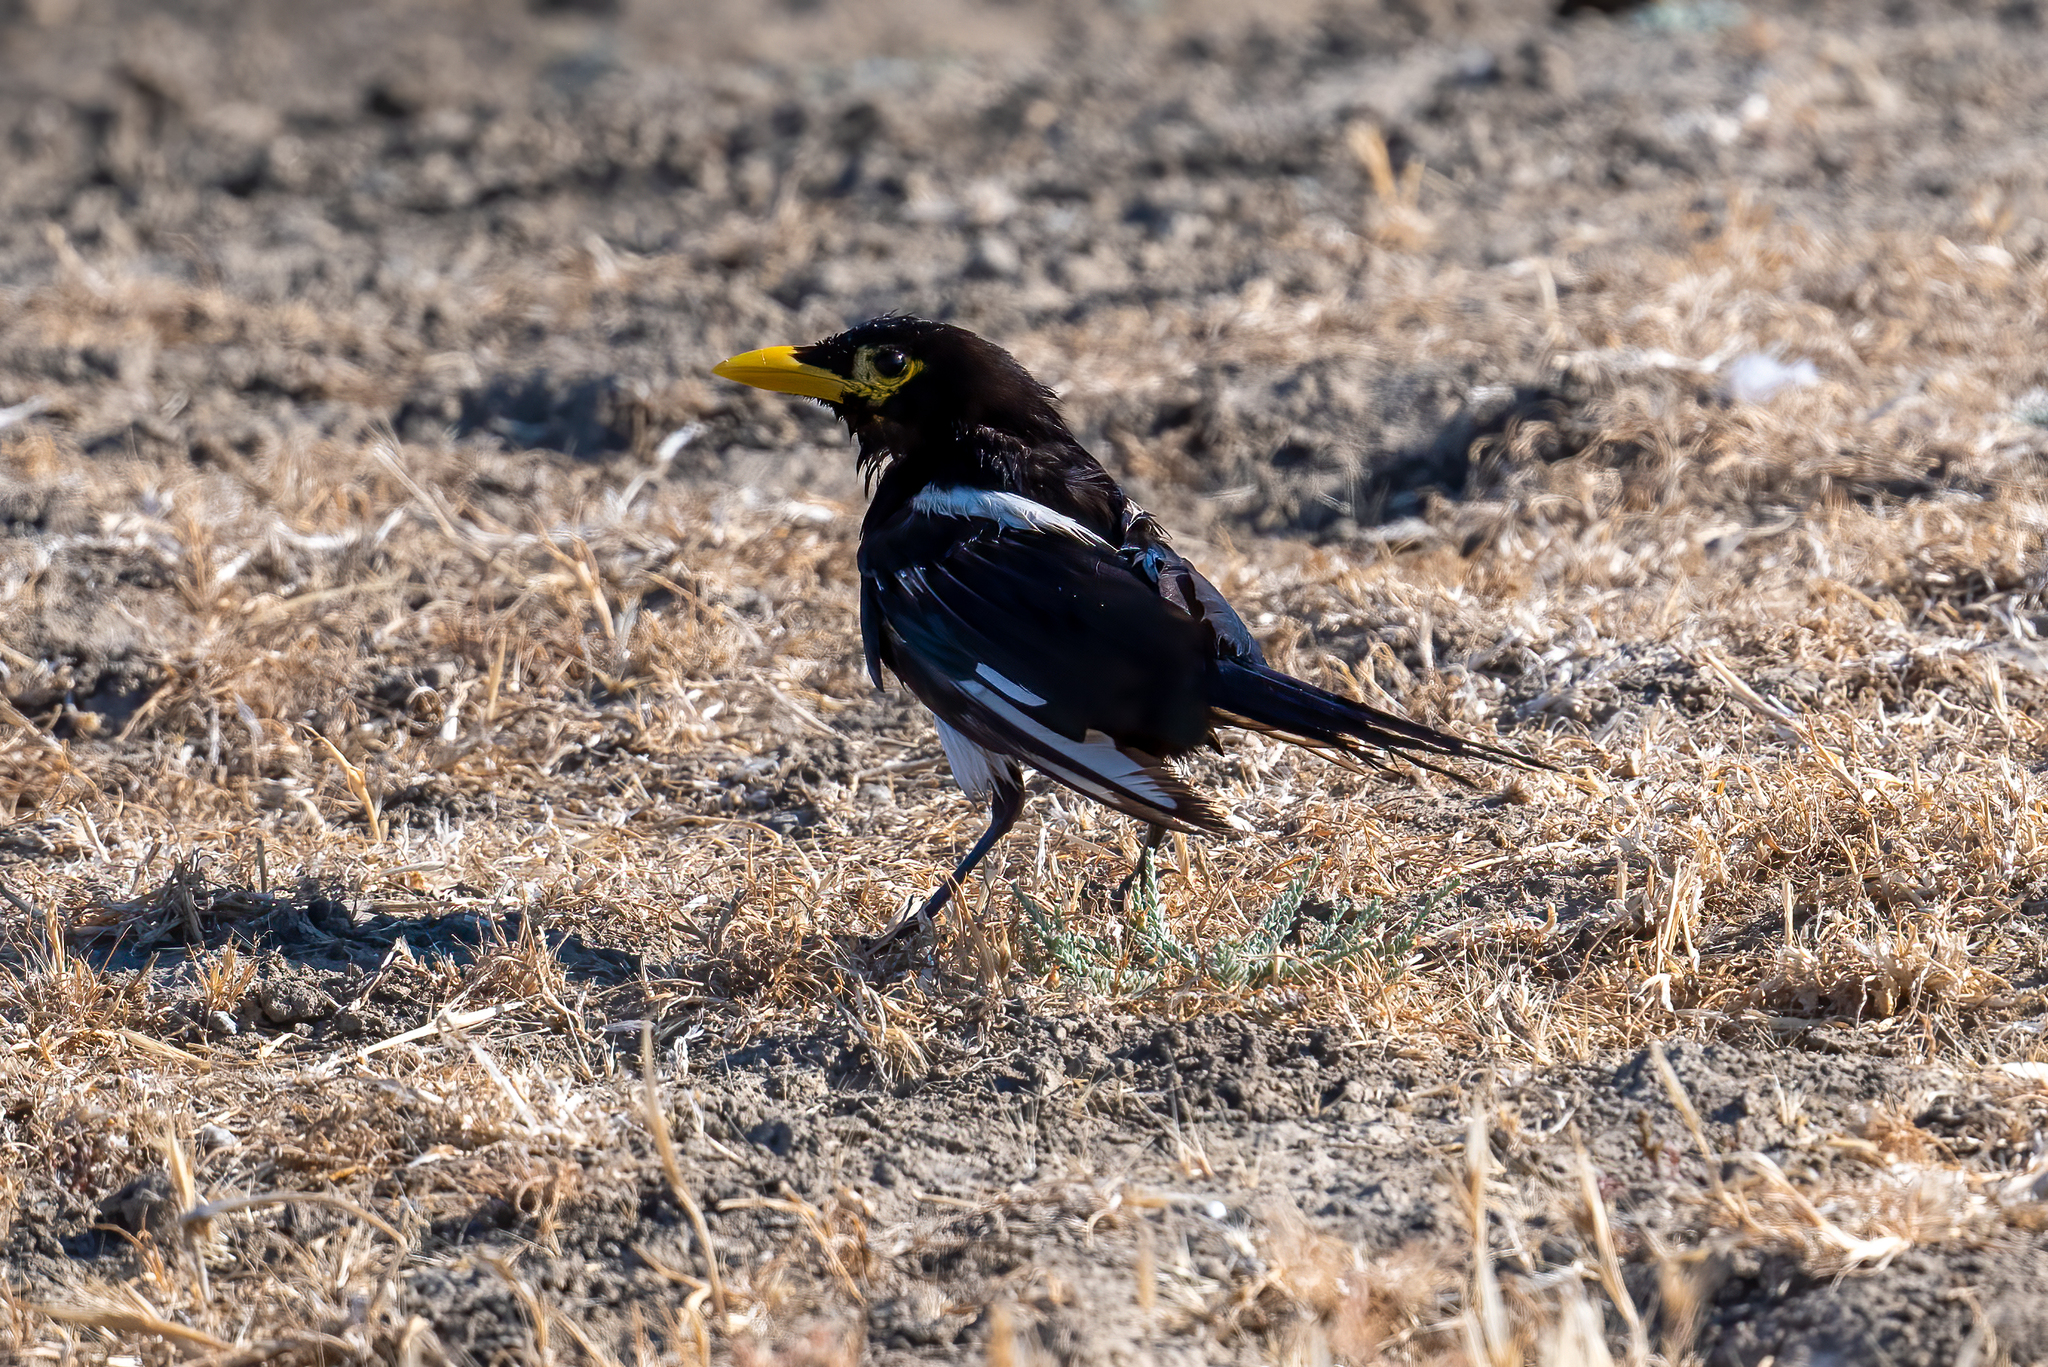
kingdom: Animalia
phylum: Chordata
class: Aves
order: Passeriformes
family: Corvidae
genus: Pica
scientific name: Pica nuttalli
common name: Yellow-billed magpie
